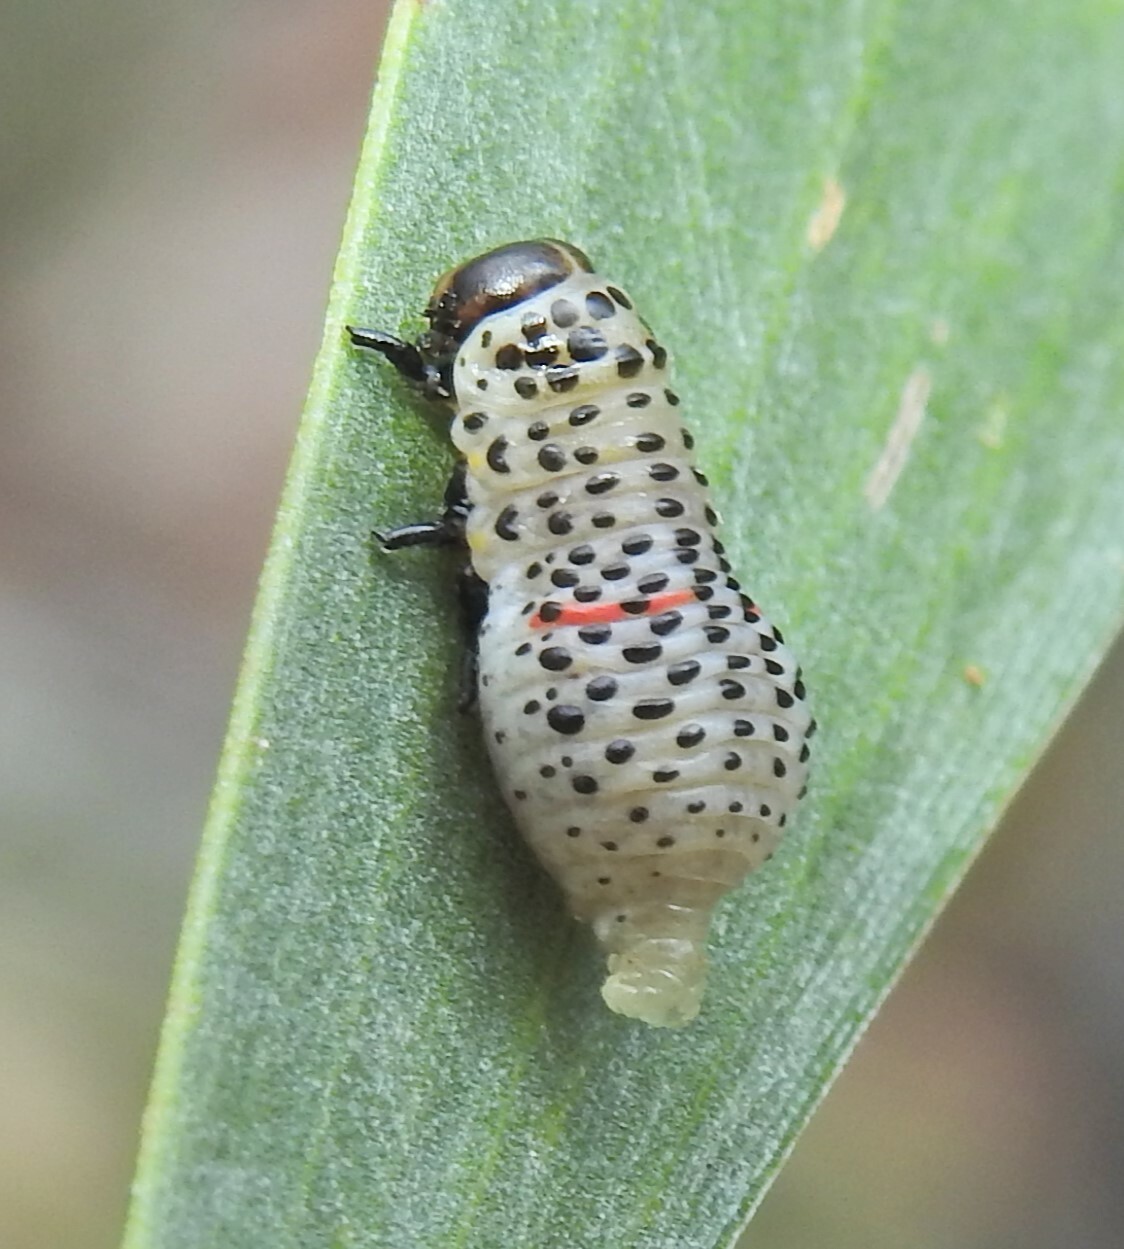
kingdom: Animalia
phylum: Arthropoda
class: Insecta
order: Coleoptera
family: Chrysomelidae
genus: Dicranosterna
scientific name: Dicranosterna
